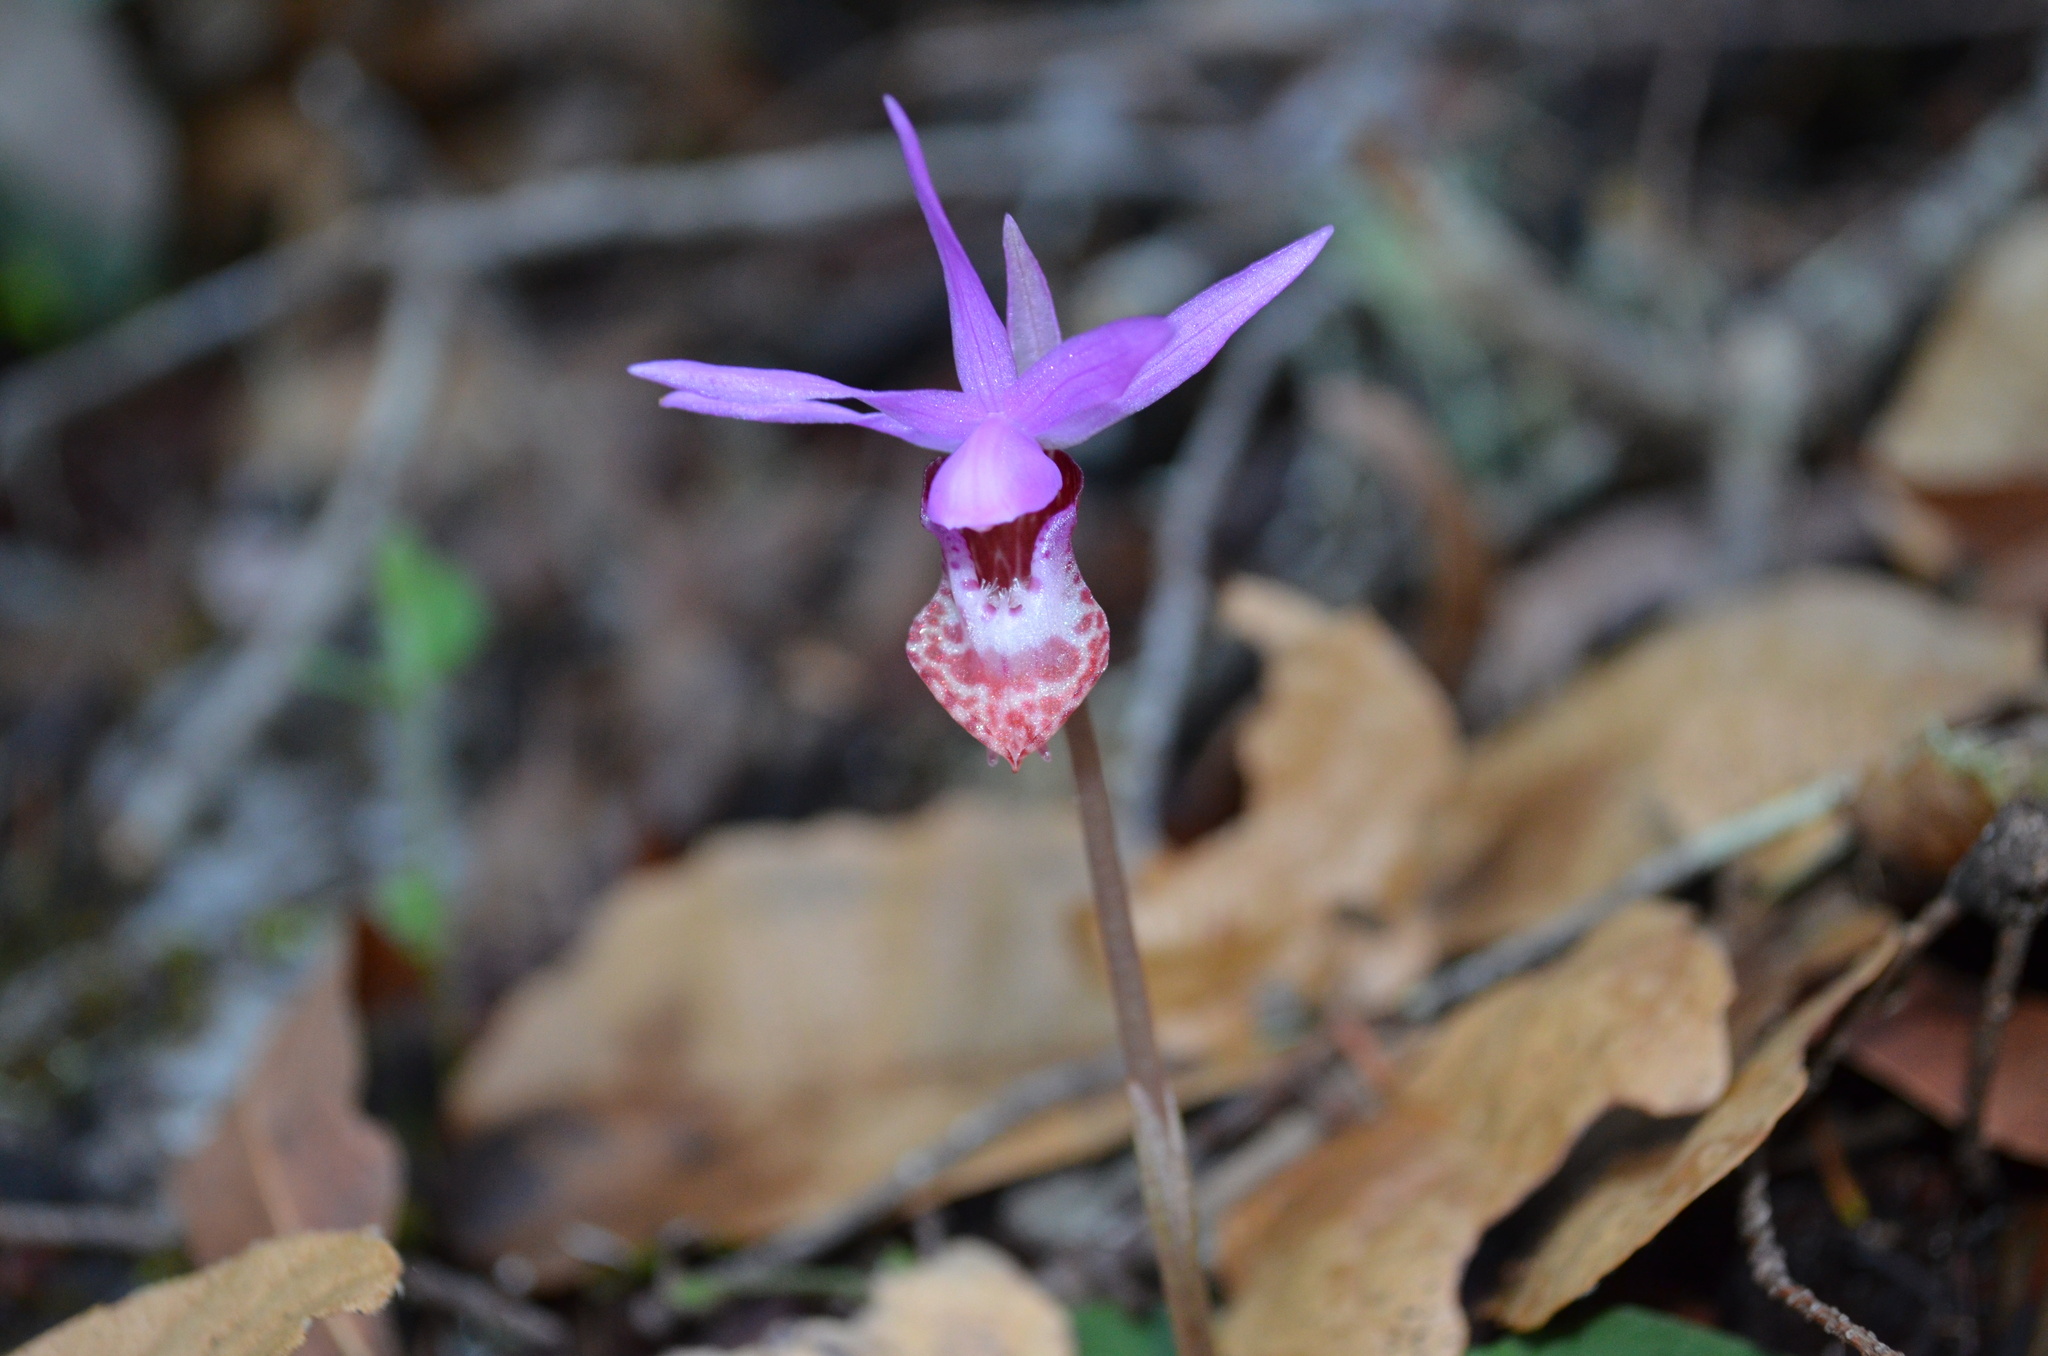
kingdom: Plantae
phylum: Tracheophyta
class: Liliopsida
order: Asparagales
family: Orchidaceae
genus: Calypso
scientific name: Calypso bulbosa
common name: Calypso
